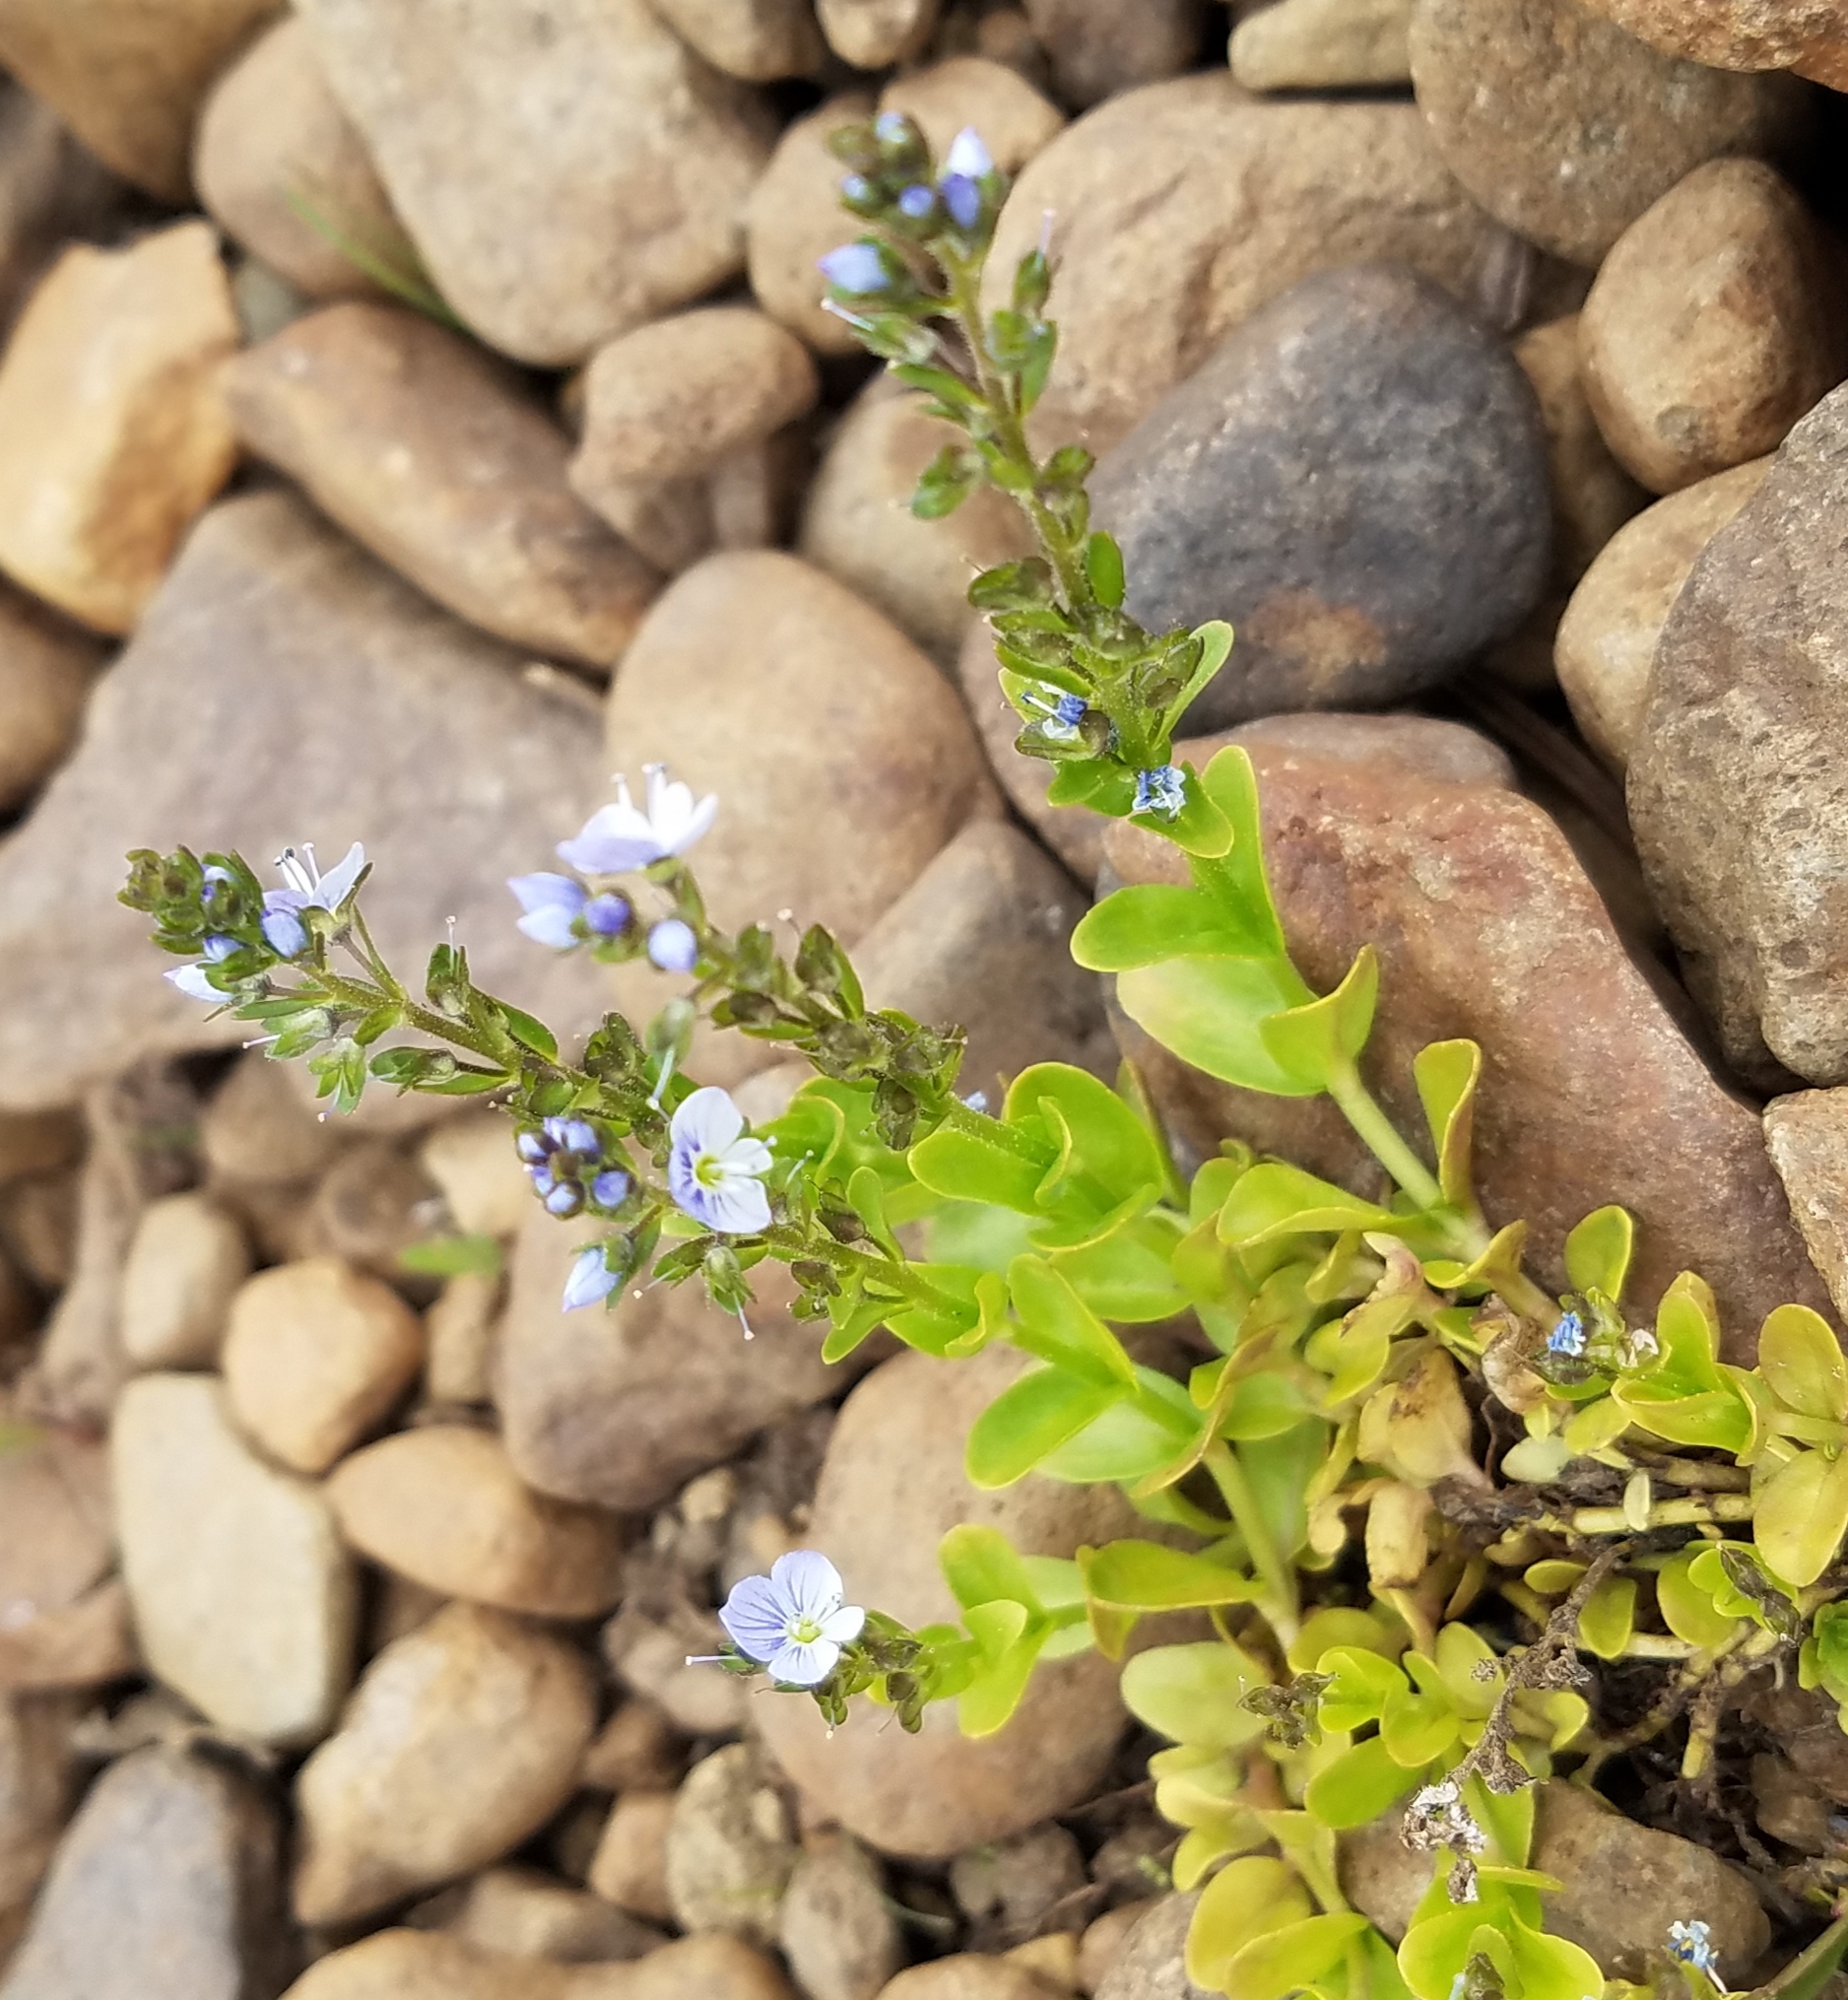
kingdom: Plantae
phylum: Tracheophyta
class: Magnoliopsida
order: Lamiales
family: Plantaginaceae
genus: Veronica
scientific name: Veronica serpyllifolia
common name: Thyme-leaved speedwell
